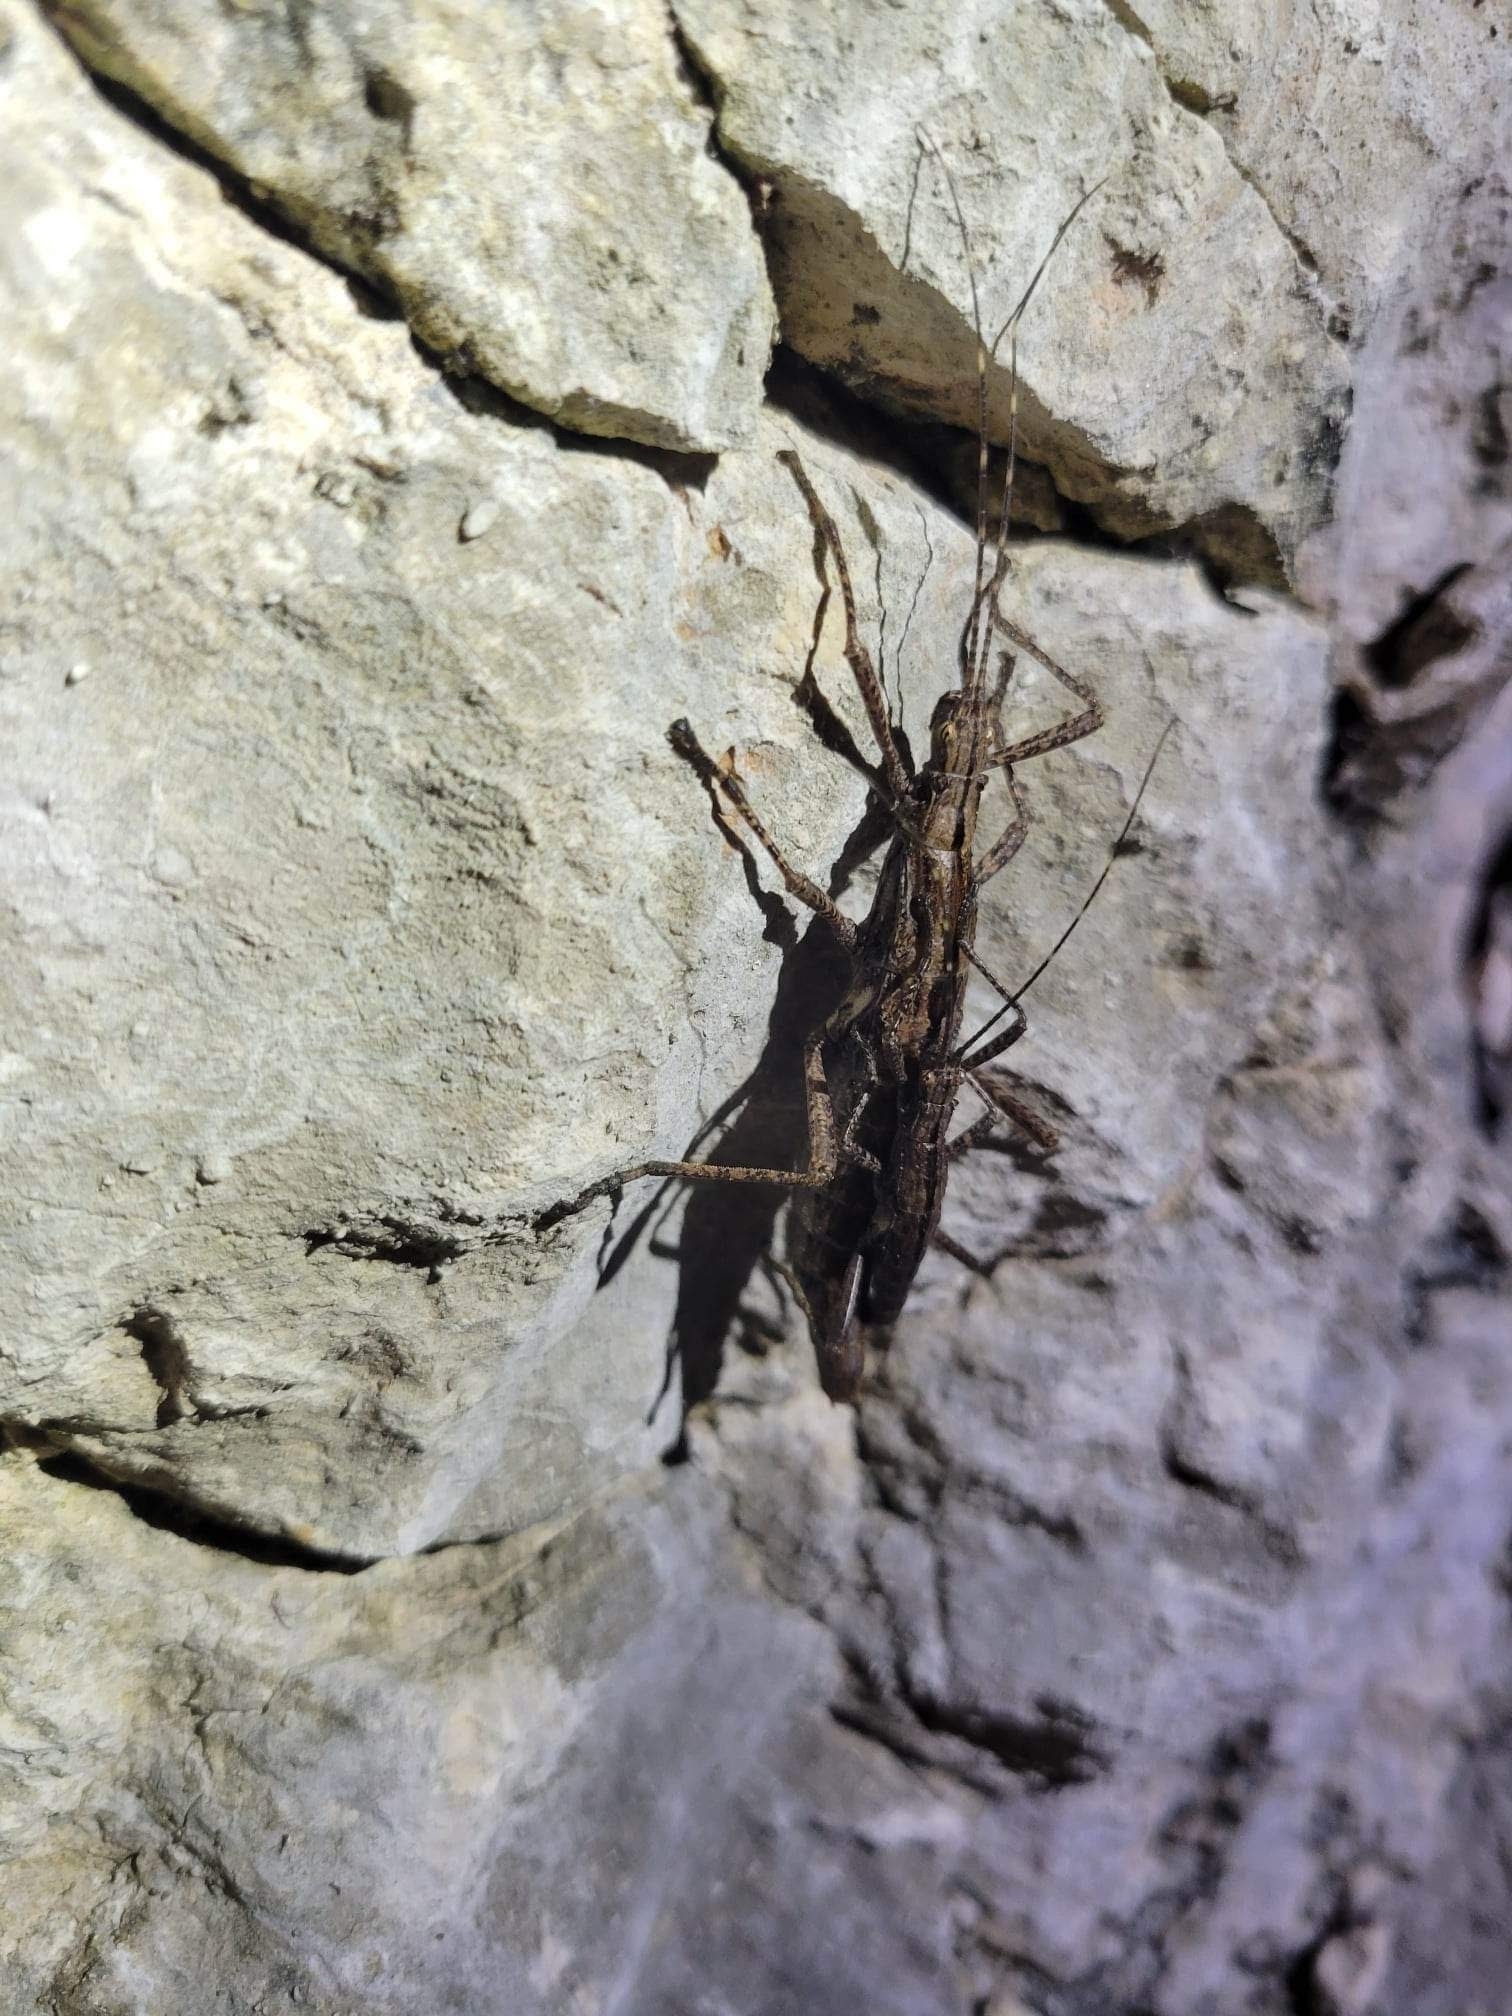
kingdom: Animalia
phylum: Arthropoda
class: Insecta
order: Phasmida
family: Pseudophasmatidae
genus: Malacomorpha
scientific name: Malacomorpha sanchezi
